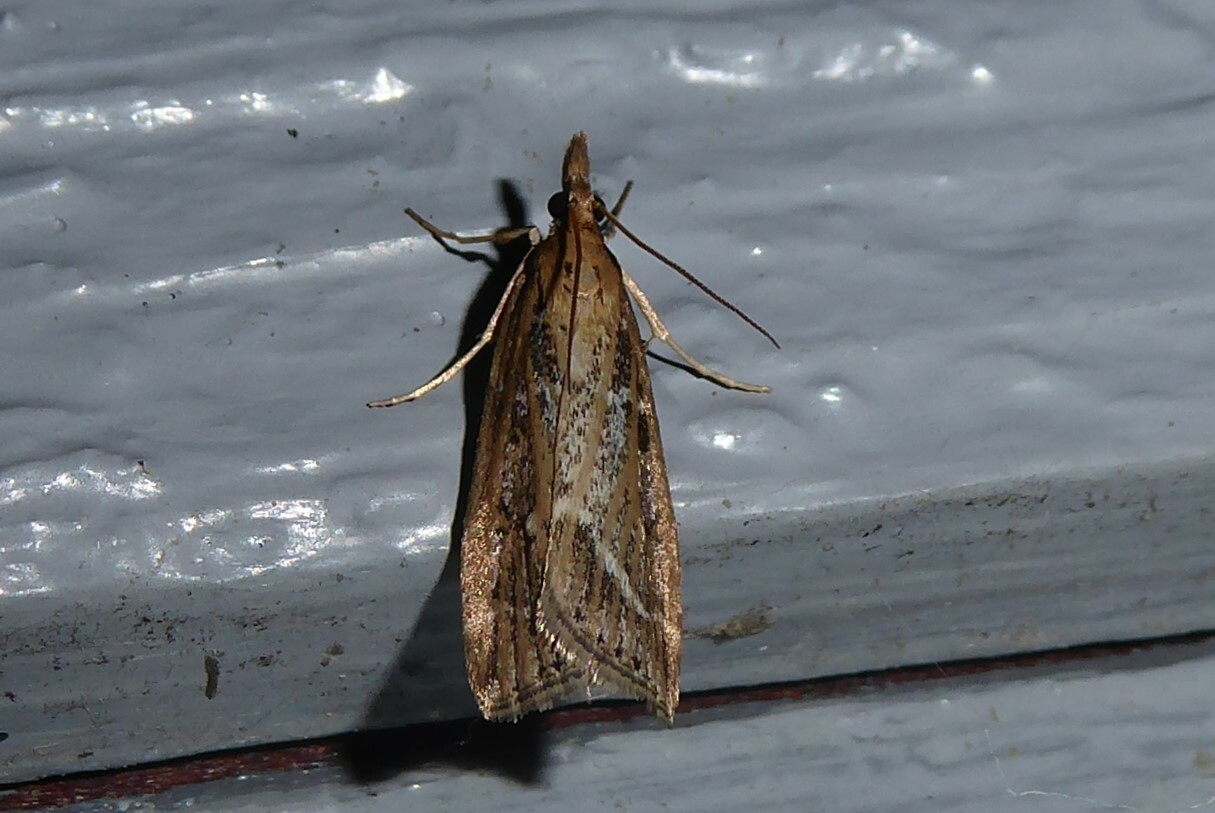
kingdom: Animalia
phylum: Arthropoda
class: Insecta
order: Lepidoptera
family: Crambidae
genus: Eudonia
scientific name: Eudonia octophora
